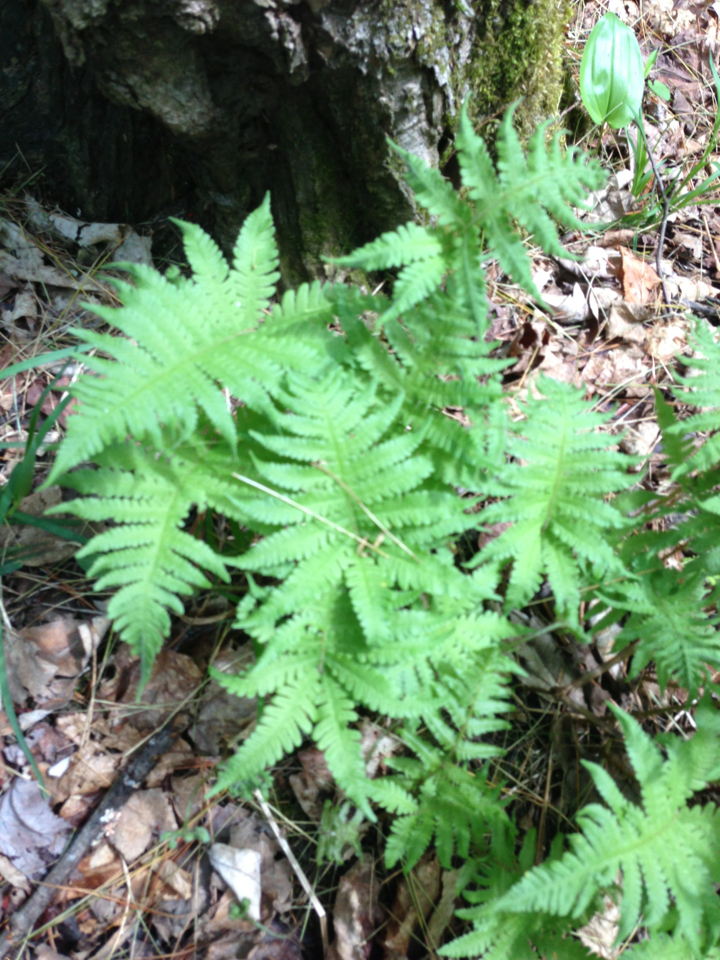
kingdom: Plantae
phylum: Tracheophyta
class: Polypodiopsida
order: Polypodiales
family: Thelypteridaceae
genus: Phegopteris
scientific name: Phegopteris connectilis
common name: Beech fern
